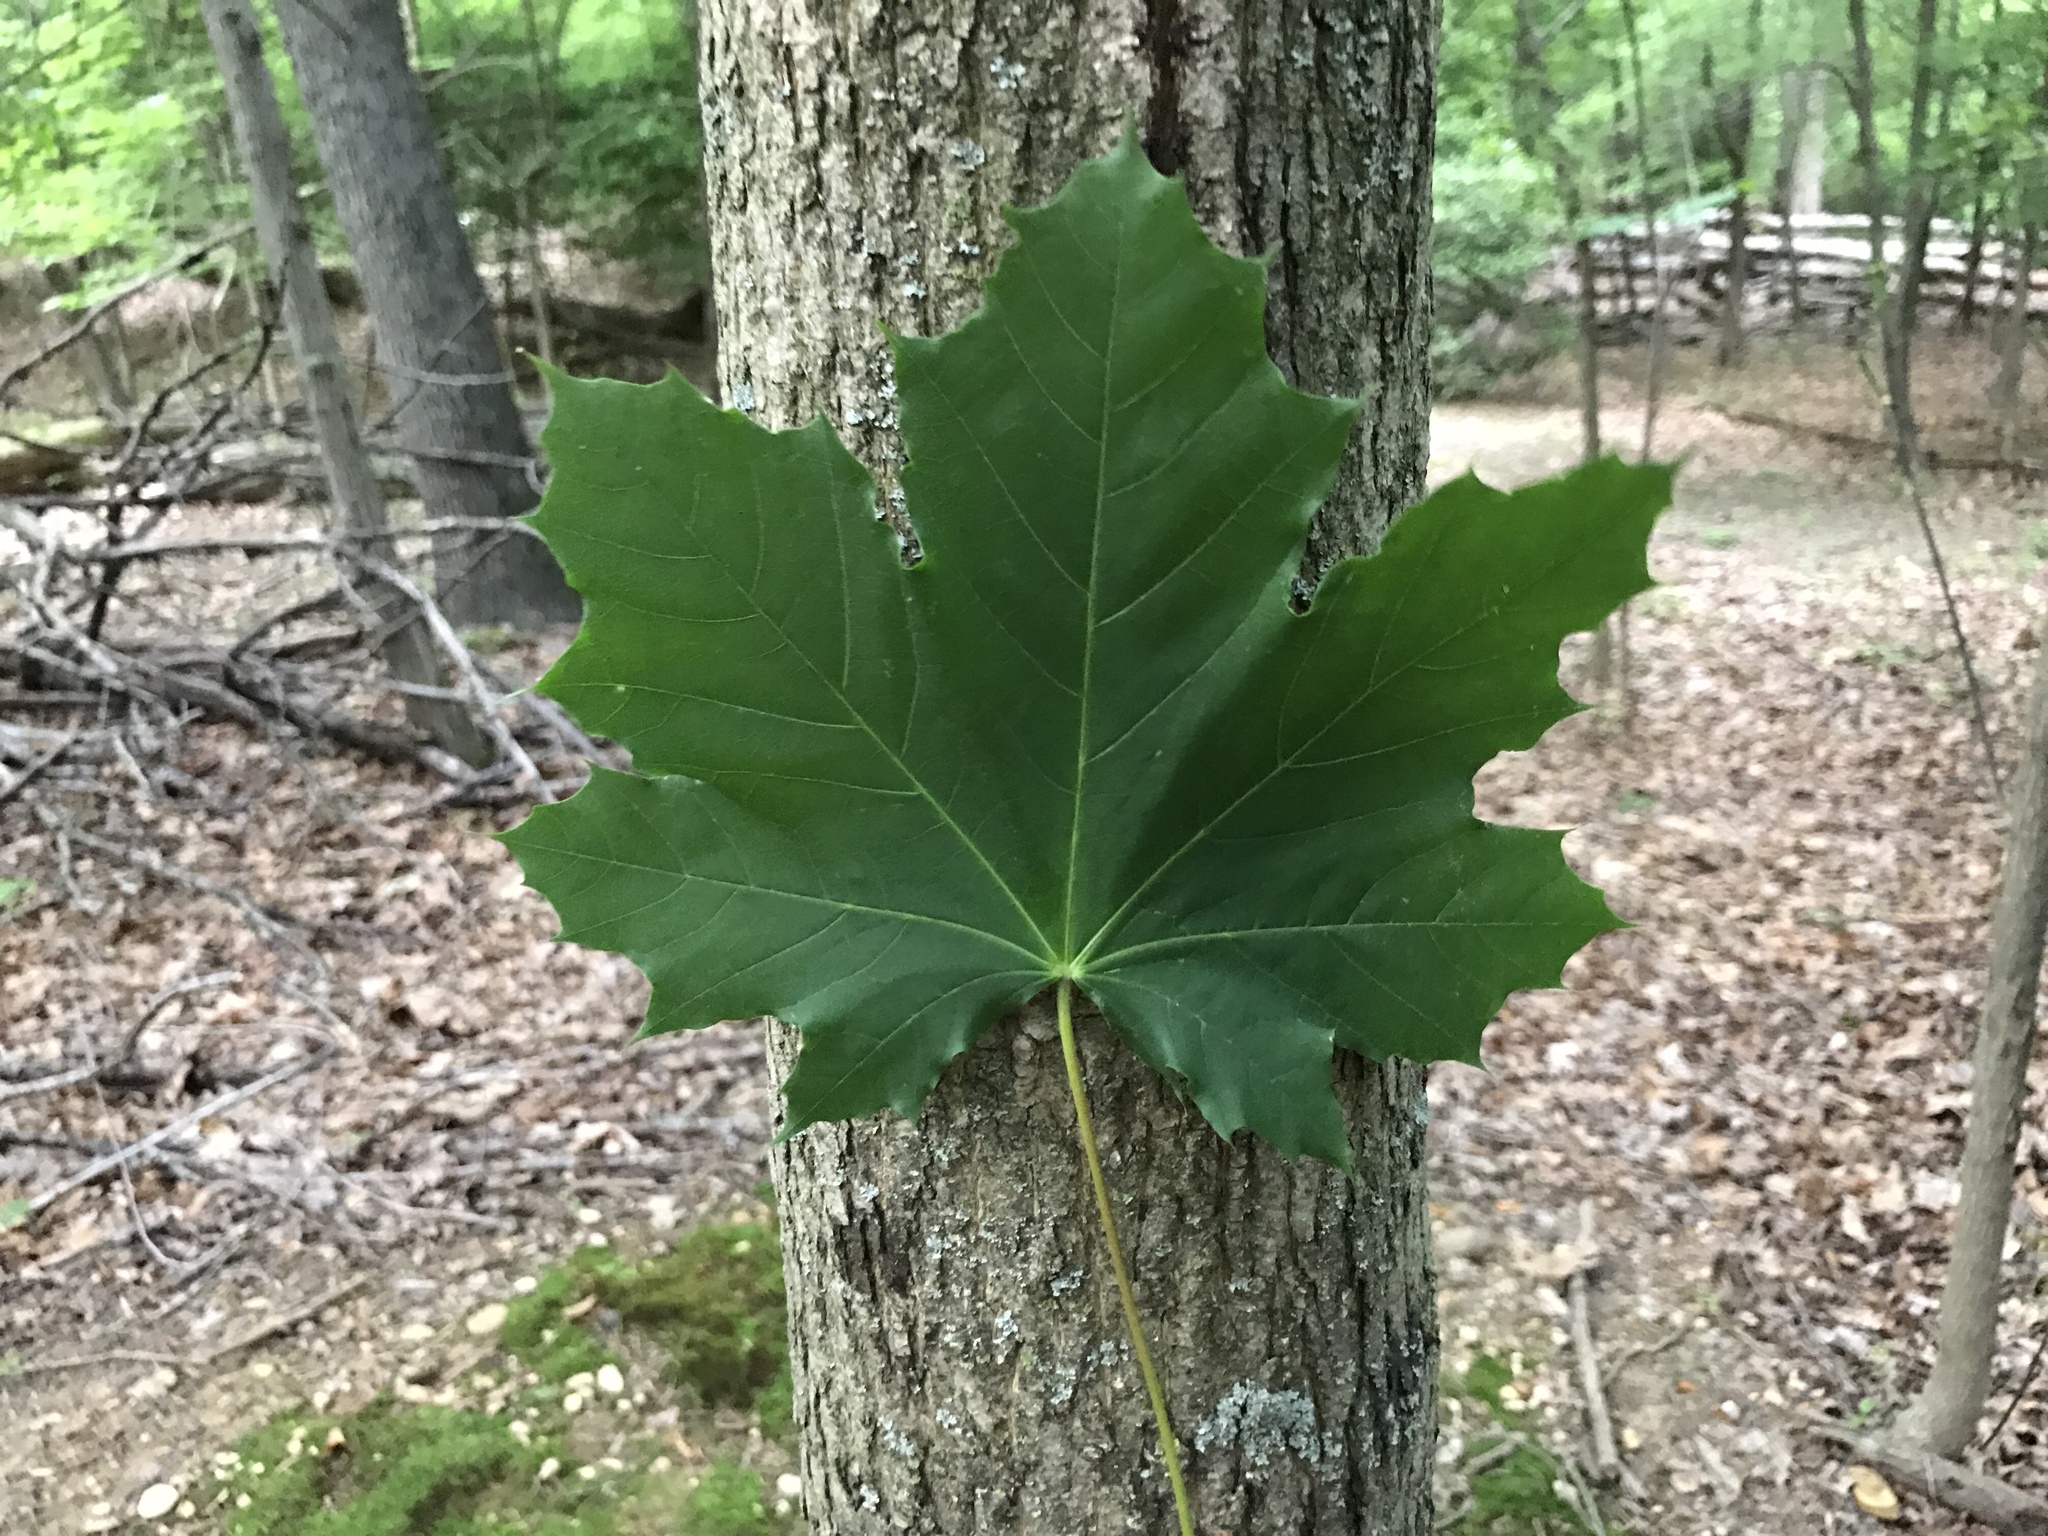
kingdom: Plantae
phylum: Tracheophyta
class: Magnoliopsida
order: Sapindales
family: Sapindaceae
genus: Acer
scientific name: Acer platanoides
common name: Norway maple
